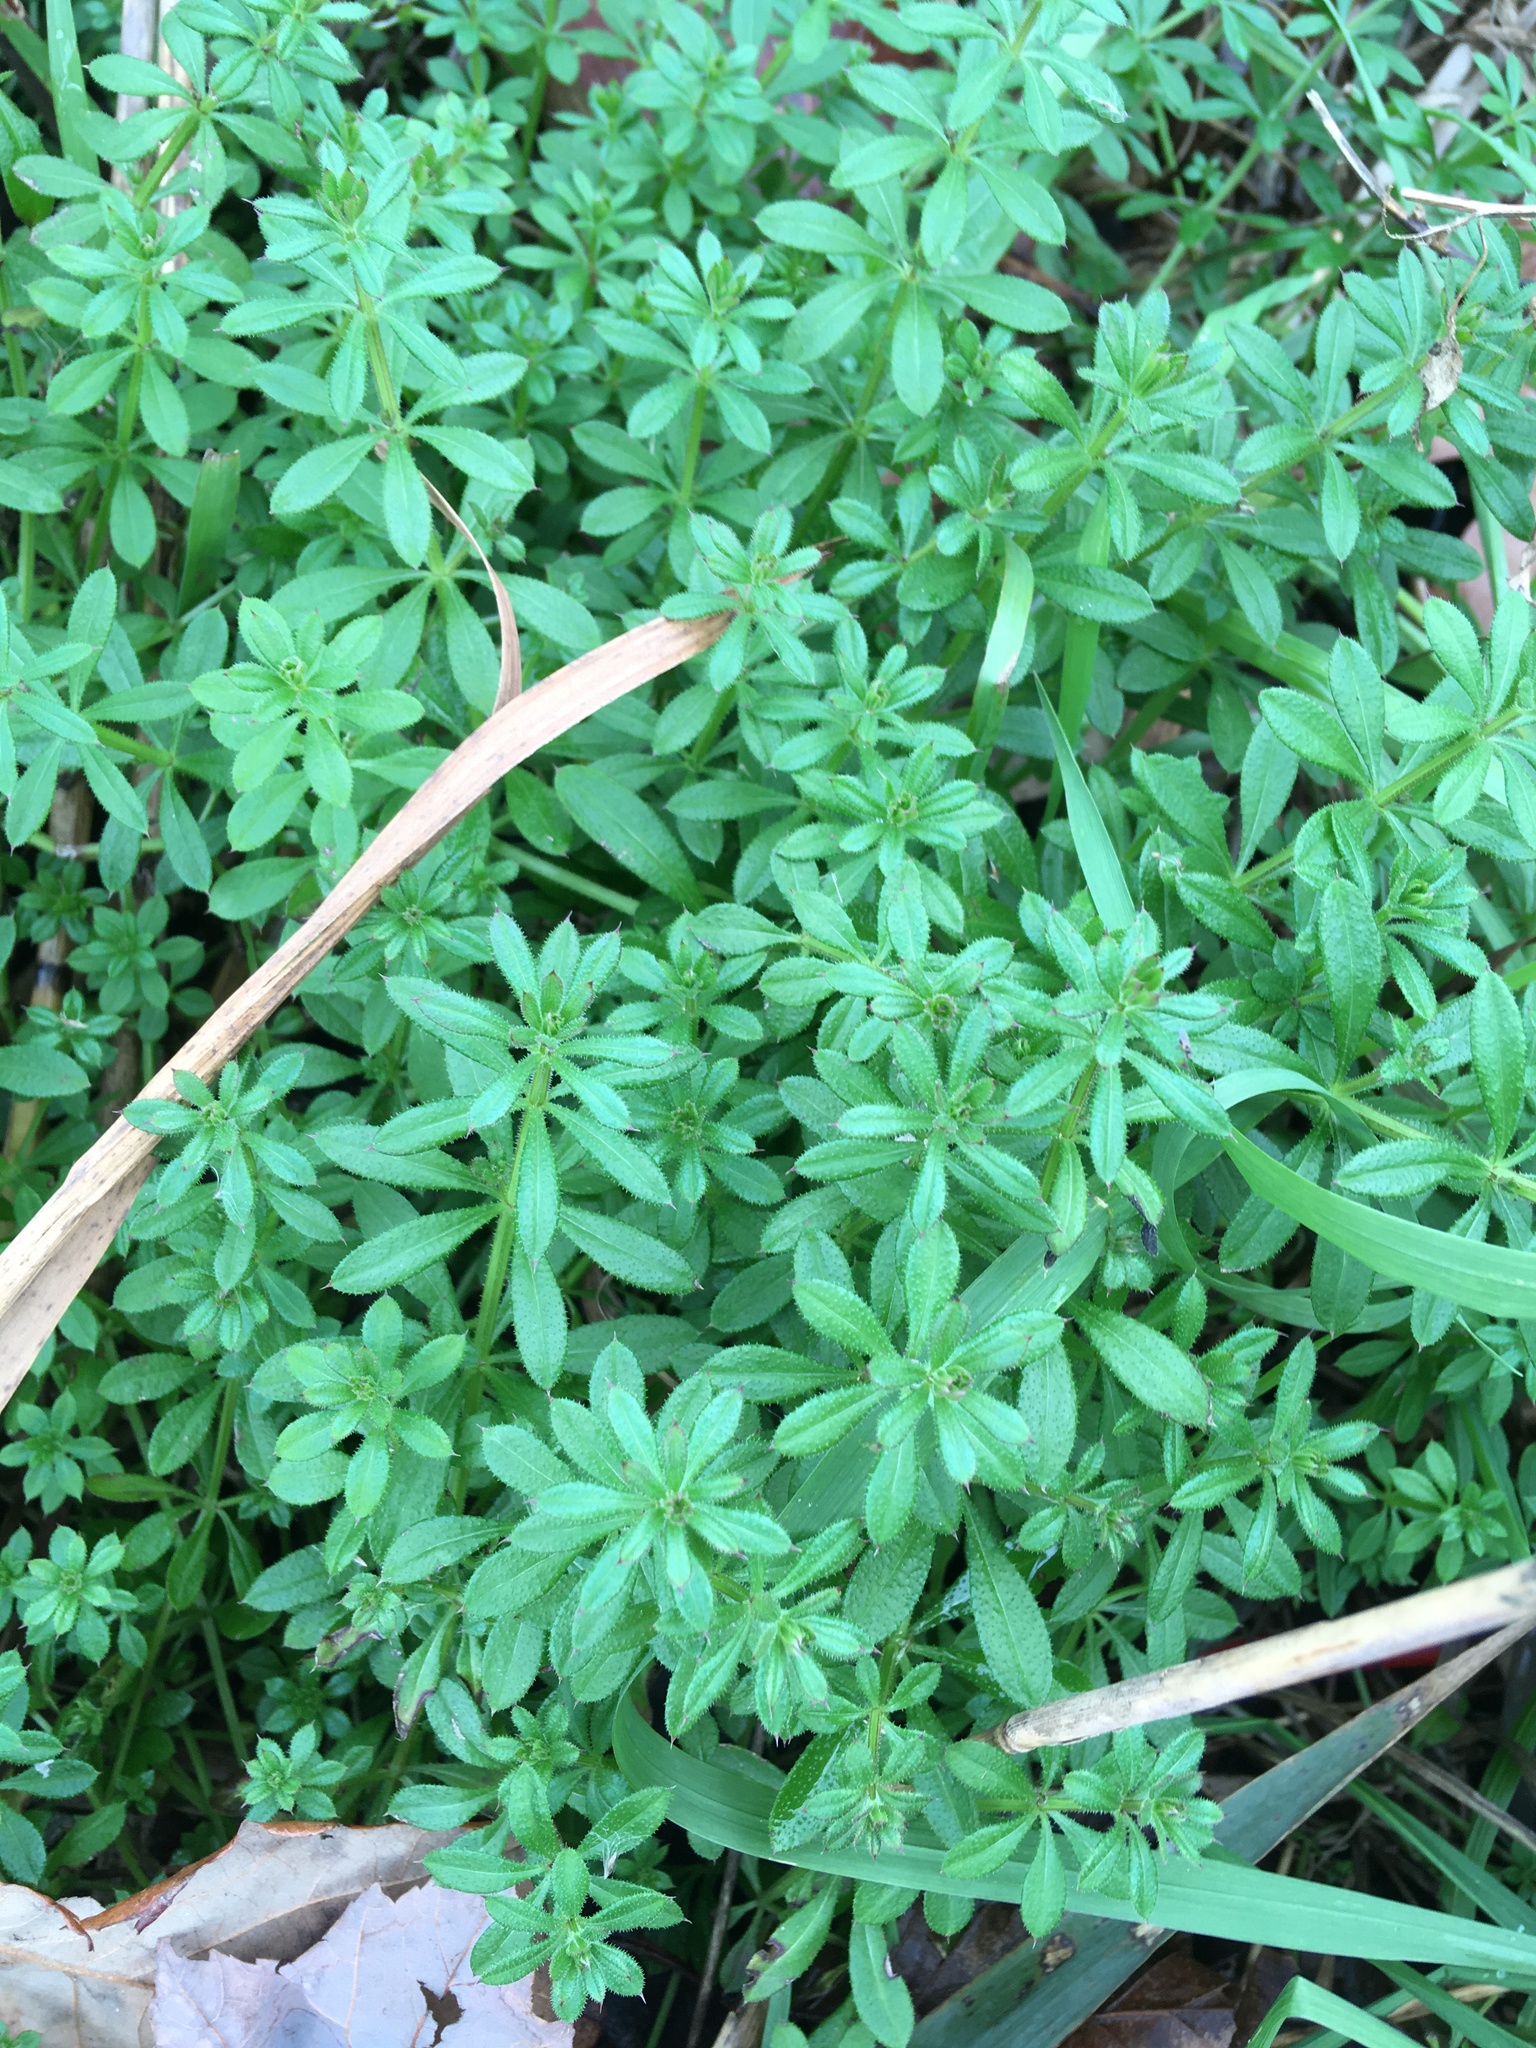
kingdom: Plantae
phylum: Tracheophyta
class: Magnoliopsida
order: Gentianales
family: Rubiaceae
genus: Galium
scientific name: Galium aparine
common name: Cleavers
